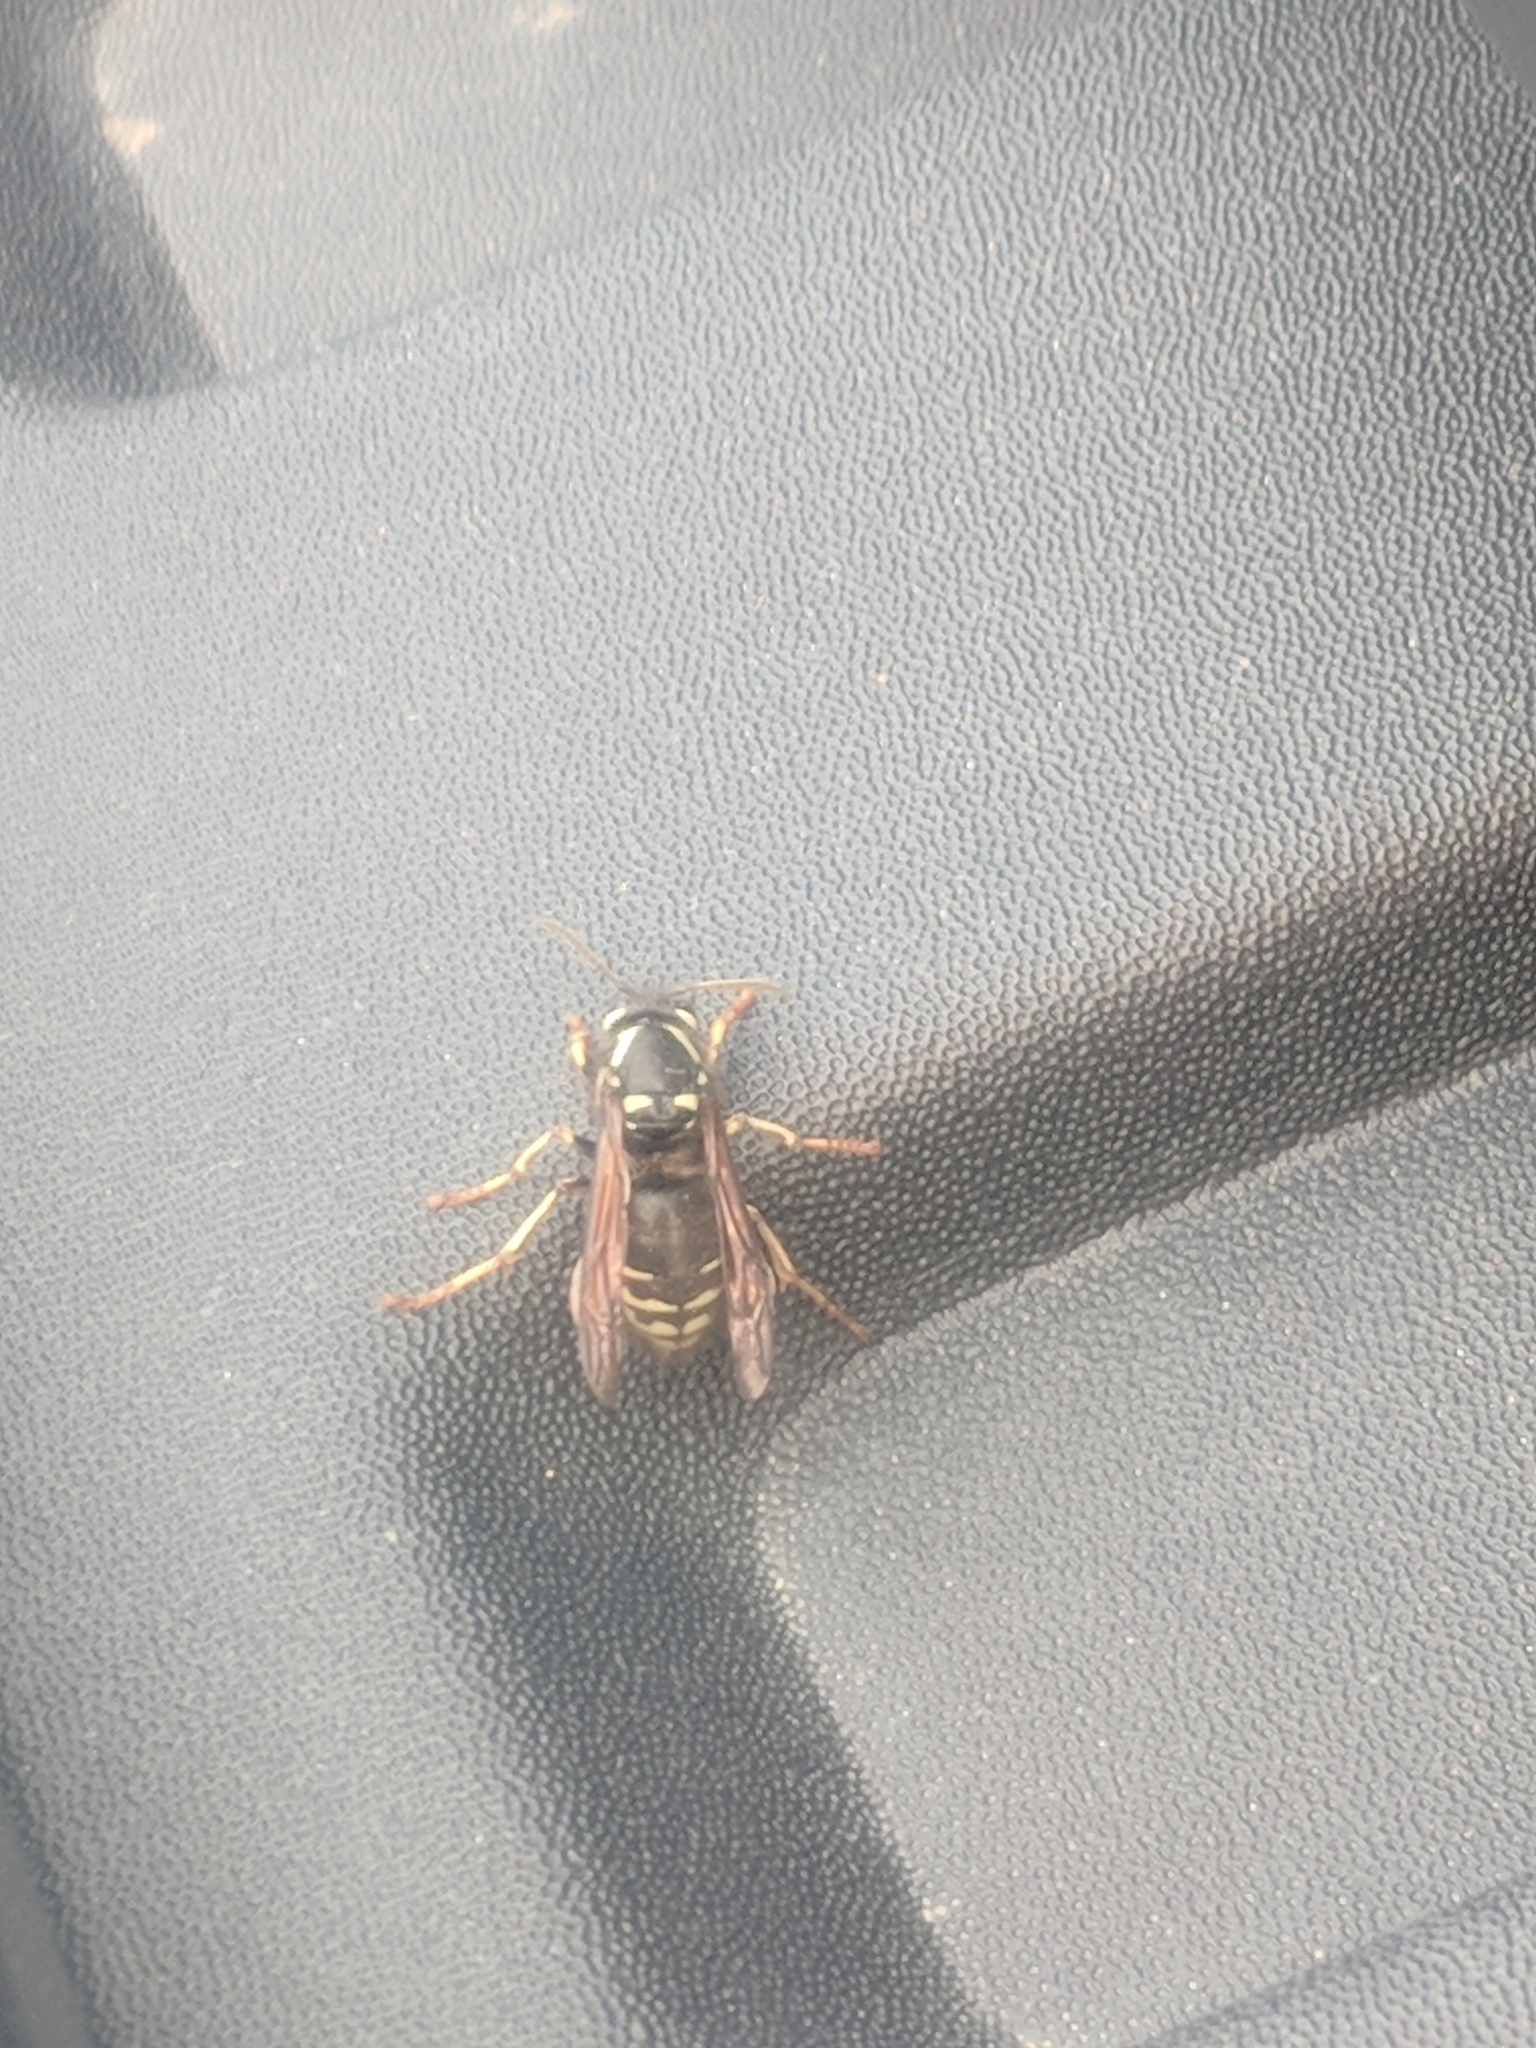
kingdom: Animalia
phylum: Arthropoda
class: Insecta
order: Hymenoptera
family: Vespidae
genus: Dolichovespula
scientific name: Dolichovespula adulterina
